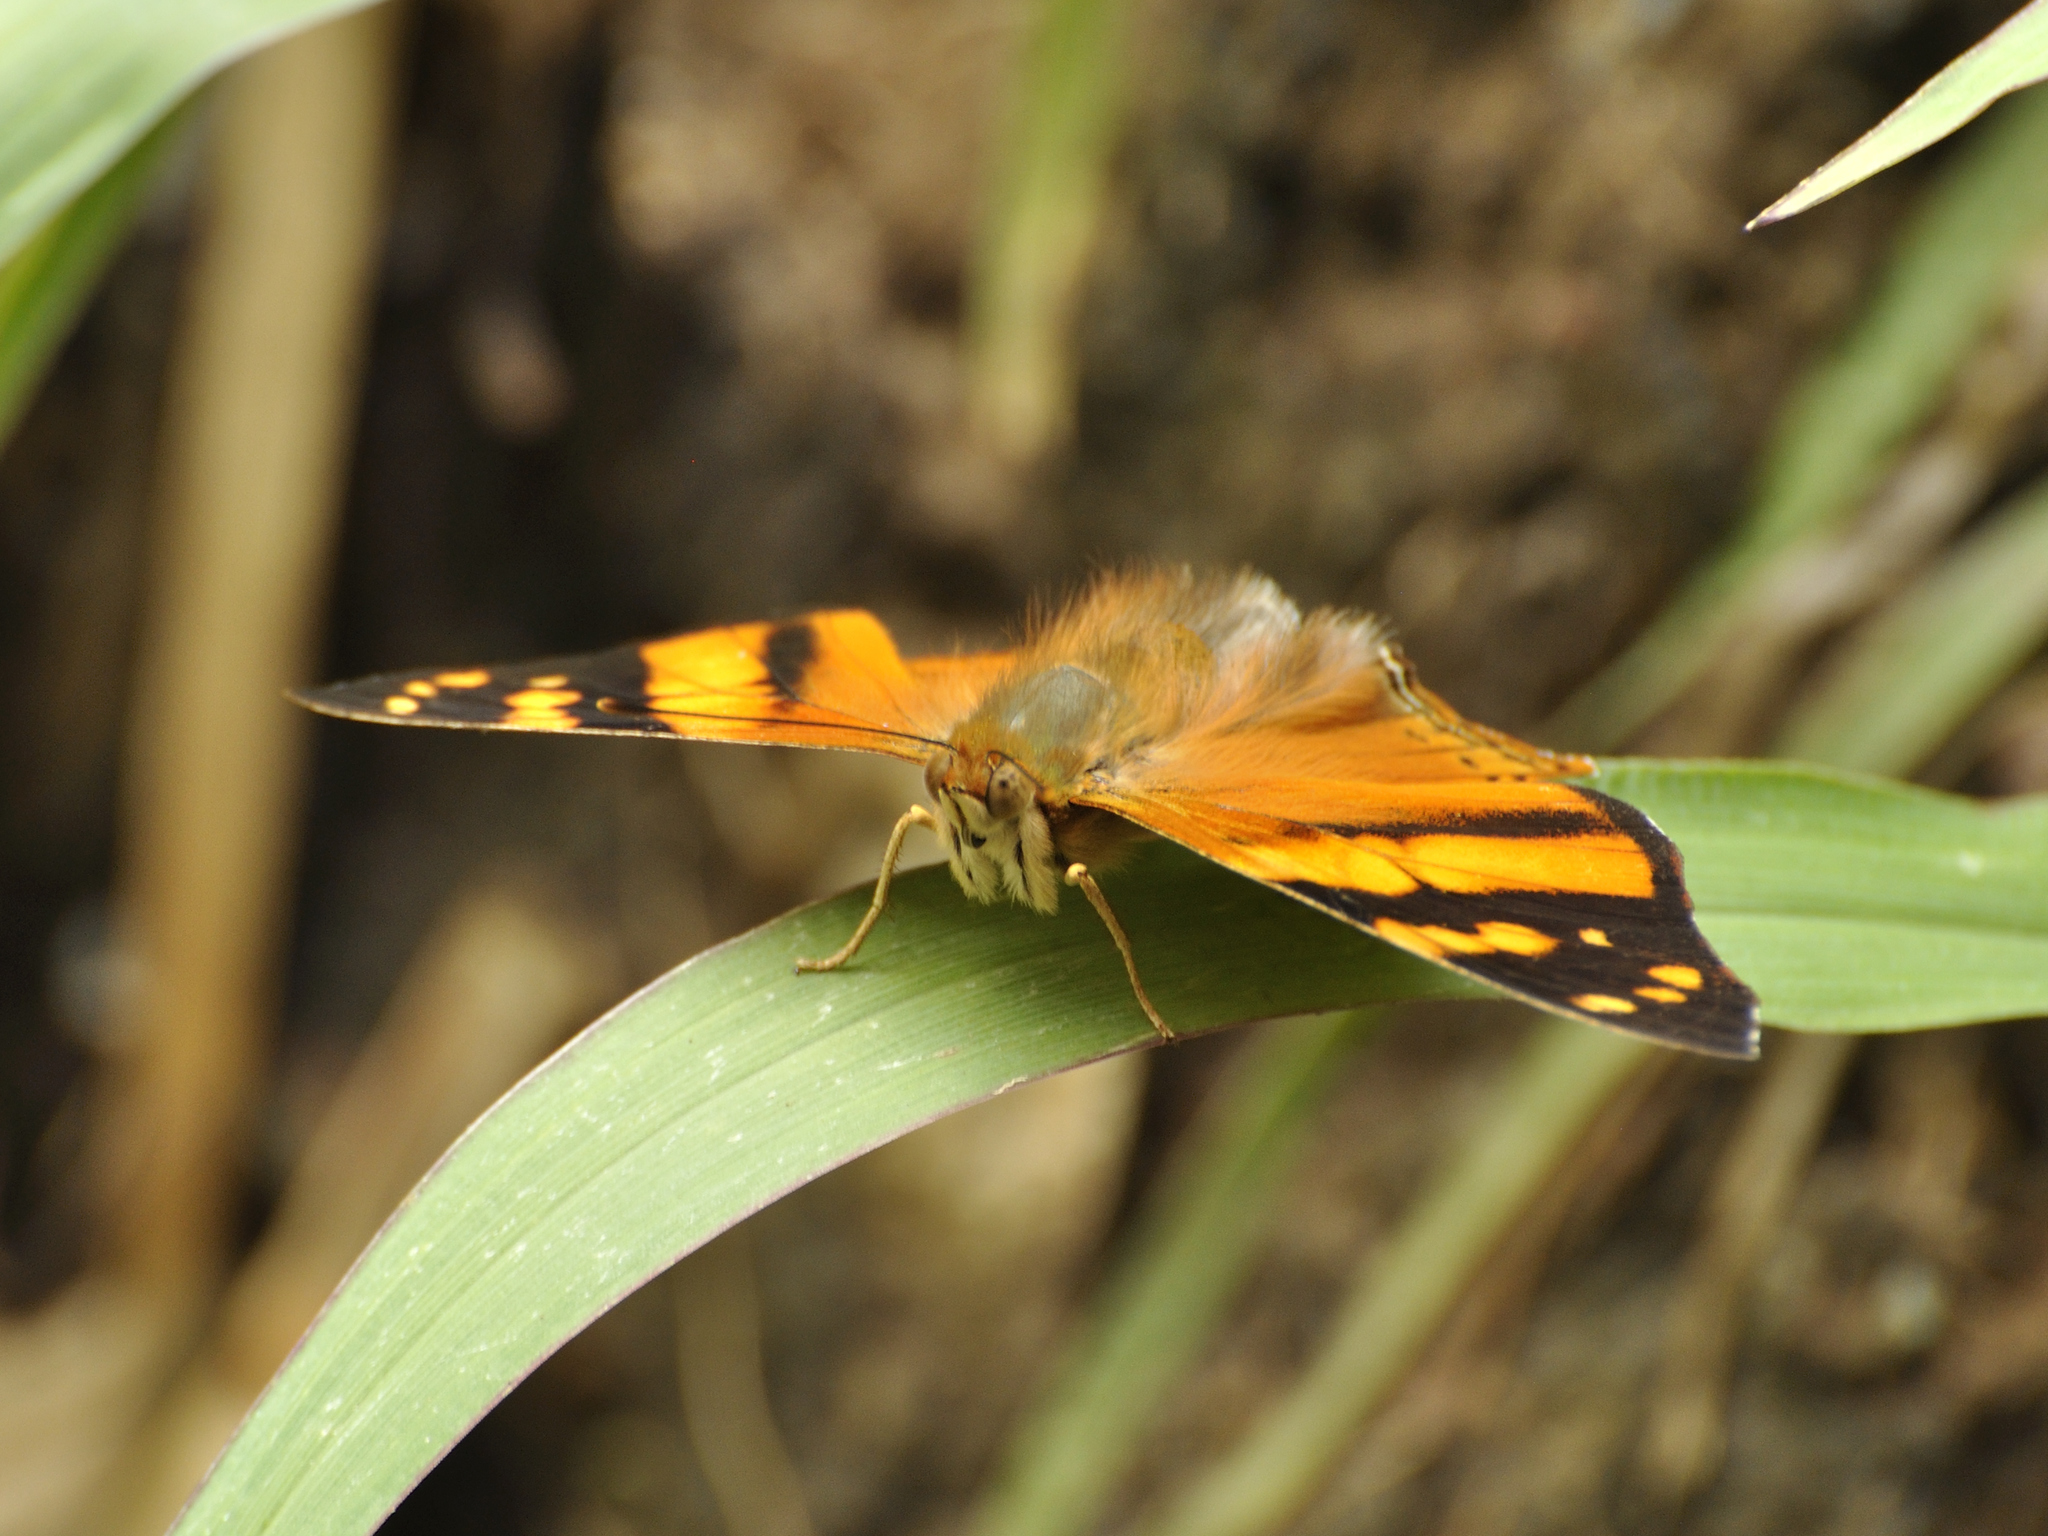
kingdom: Animalia
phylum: Arthropoda
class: Insecta
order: Lepidoptera
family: Nymphalidae
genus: Hypanartia
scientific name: Hypanartia lethe
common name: Orange mapwing
